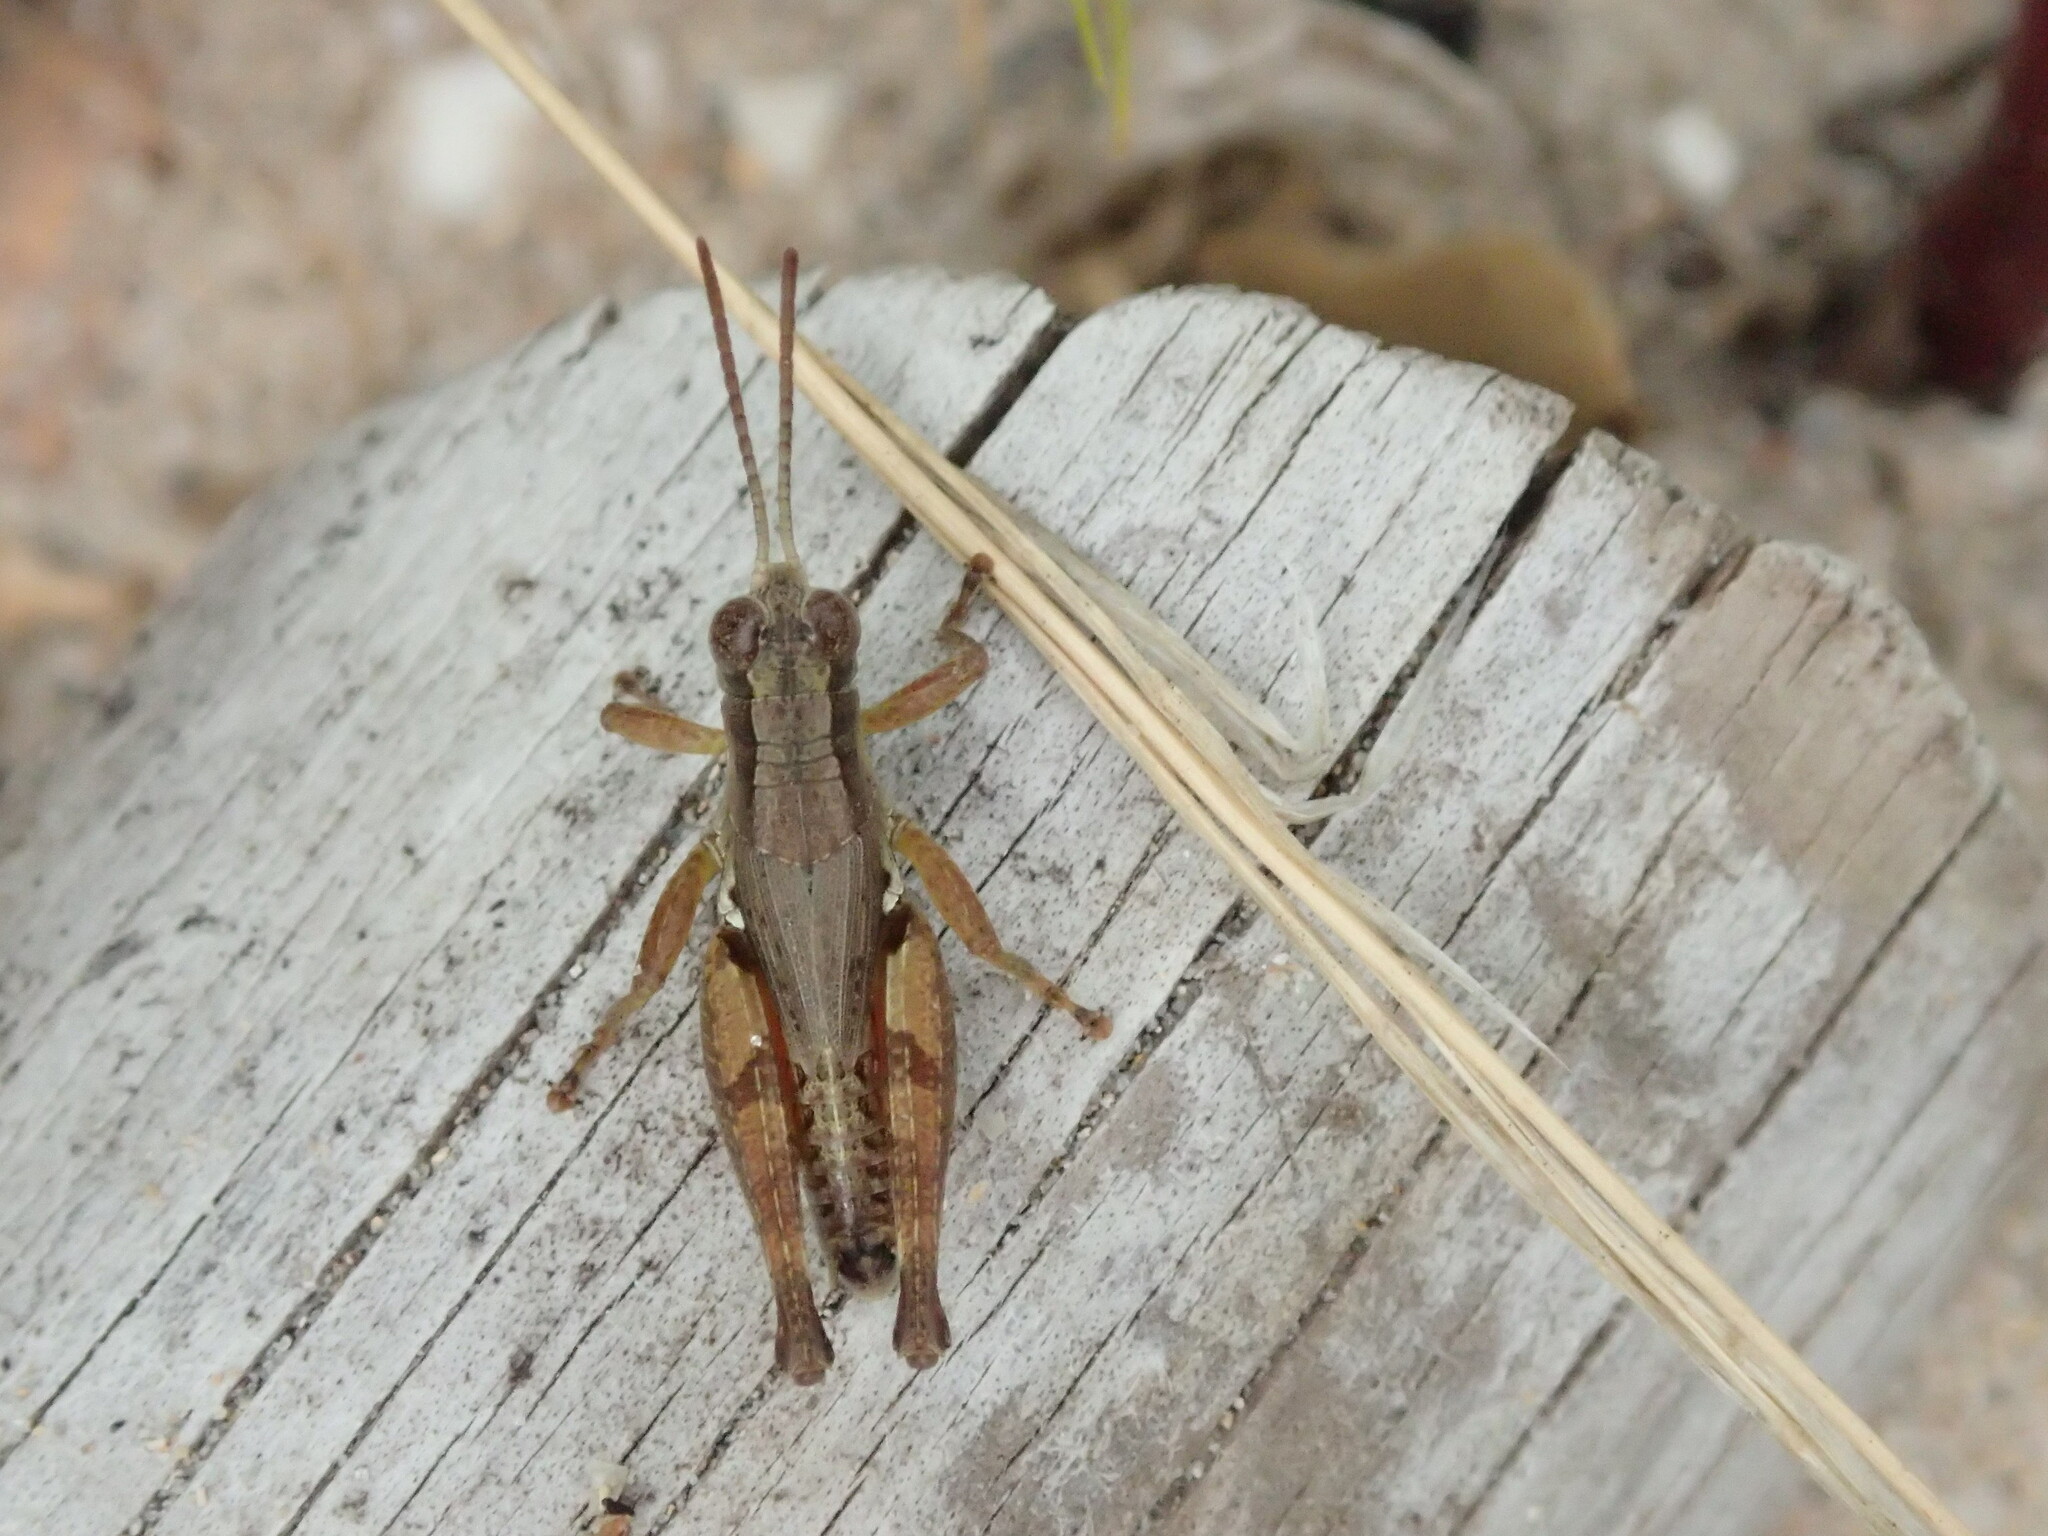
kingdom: Animalia
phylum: Arthropoda
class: Insecta
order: Orthoptera
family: Acrididae
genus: Phaulacridium
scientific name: Phaulacridium vittatum
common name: Wingless grasshopper
